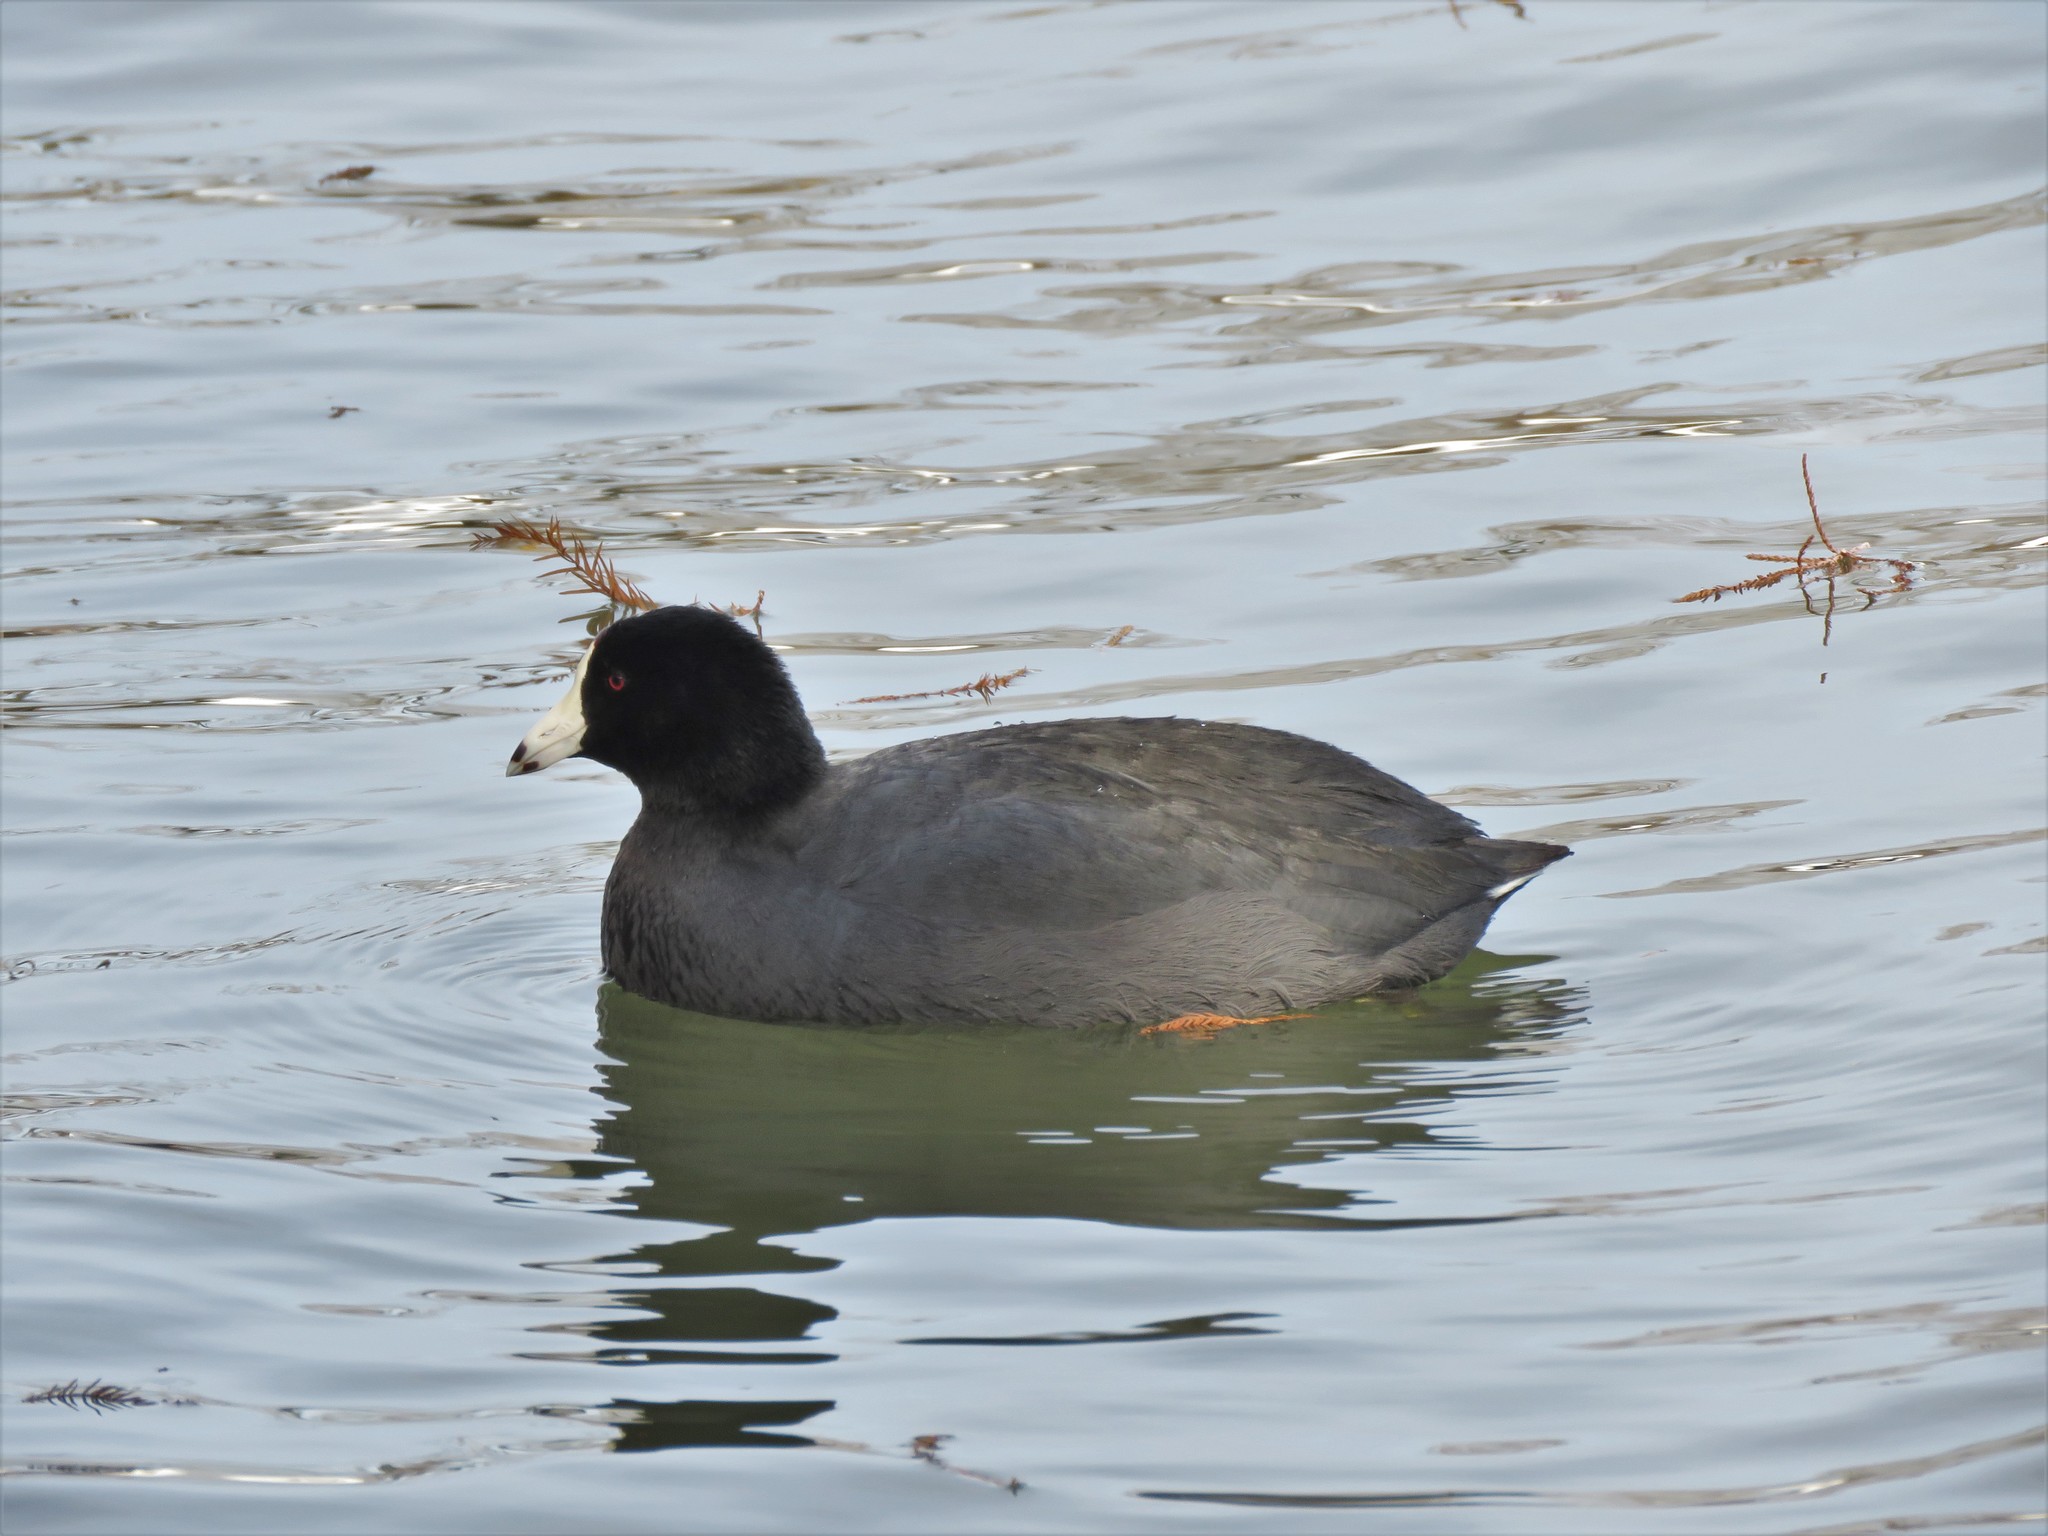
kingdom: Animalia
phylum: Chordata
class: Aves
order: Gruiformes
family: Rallidae
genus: Fulica
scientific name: Fulica americana
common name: American coot
